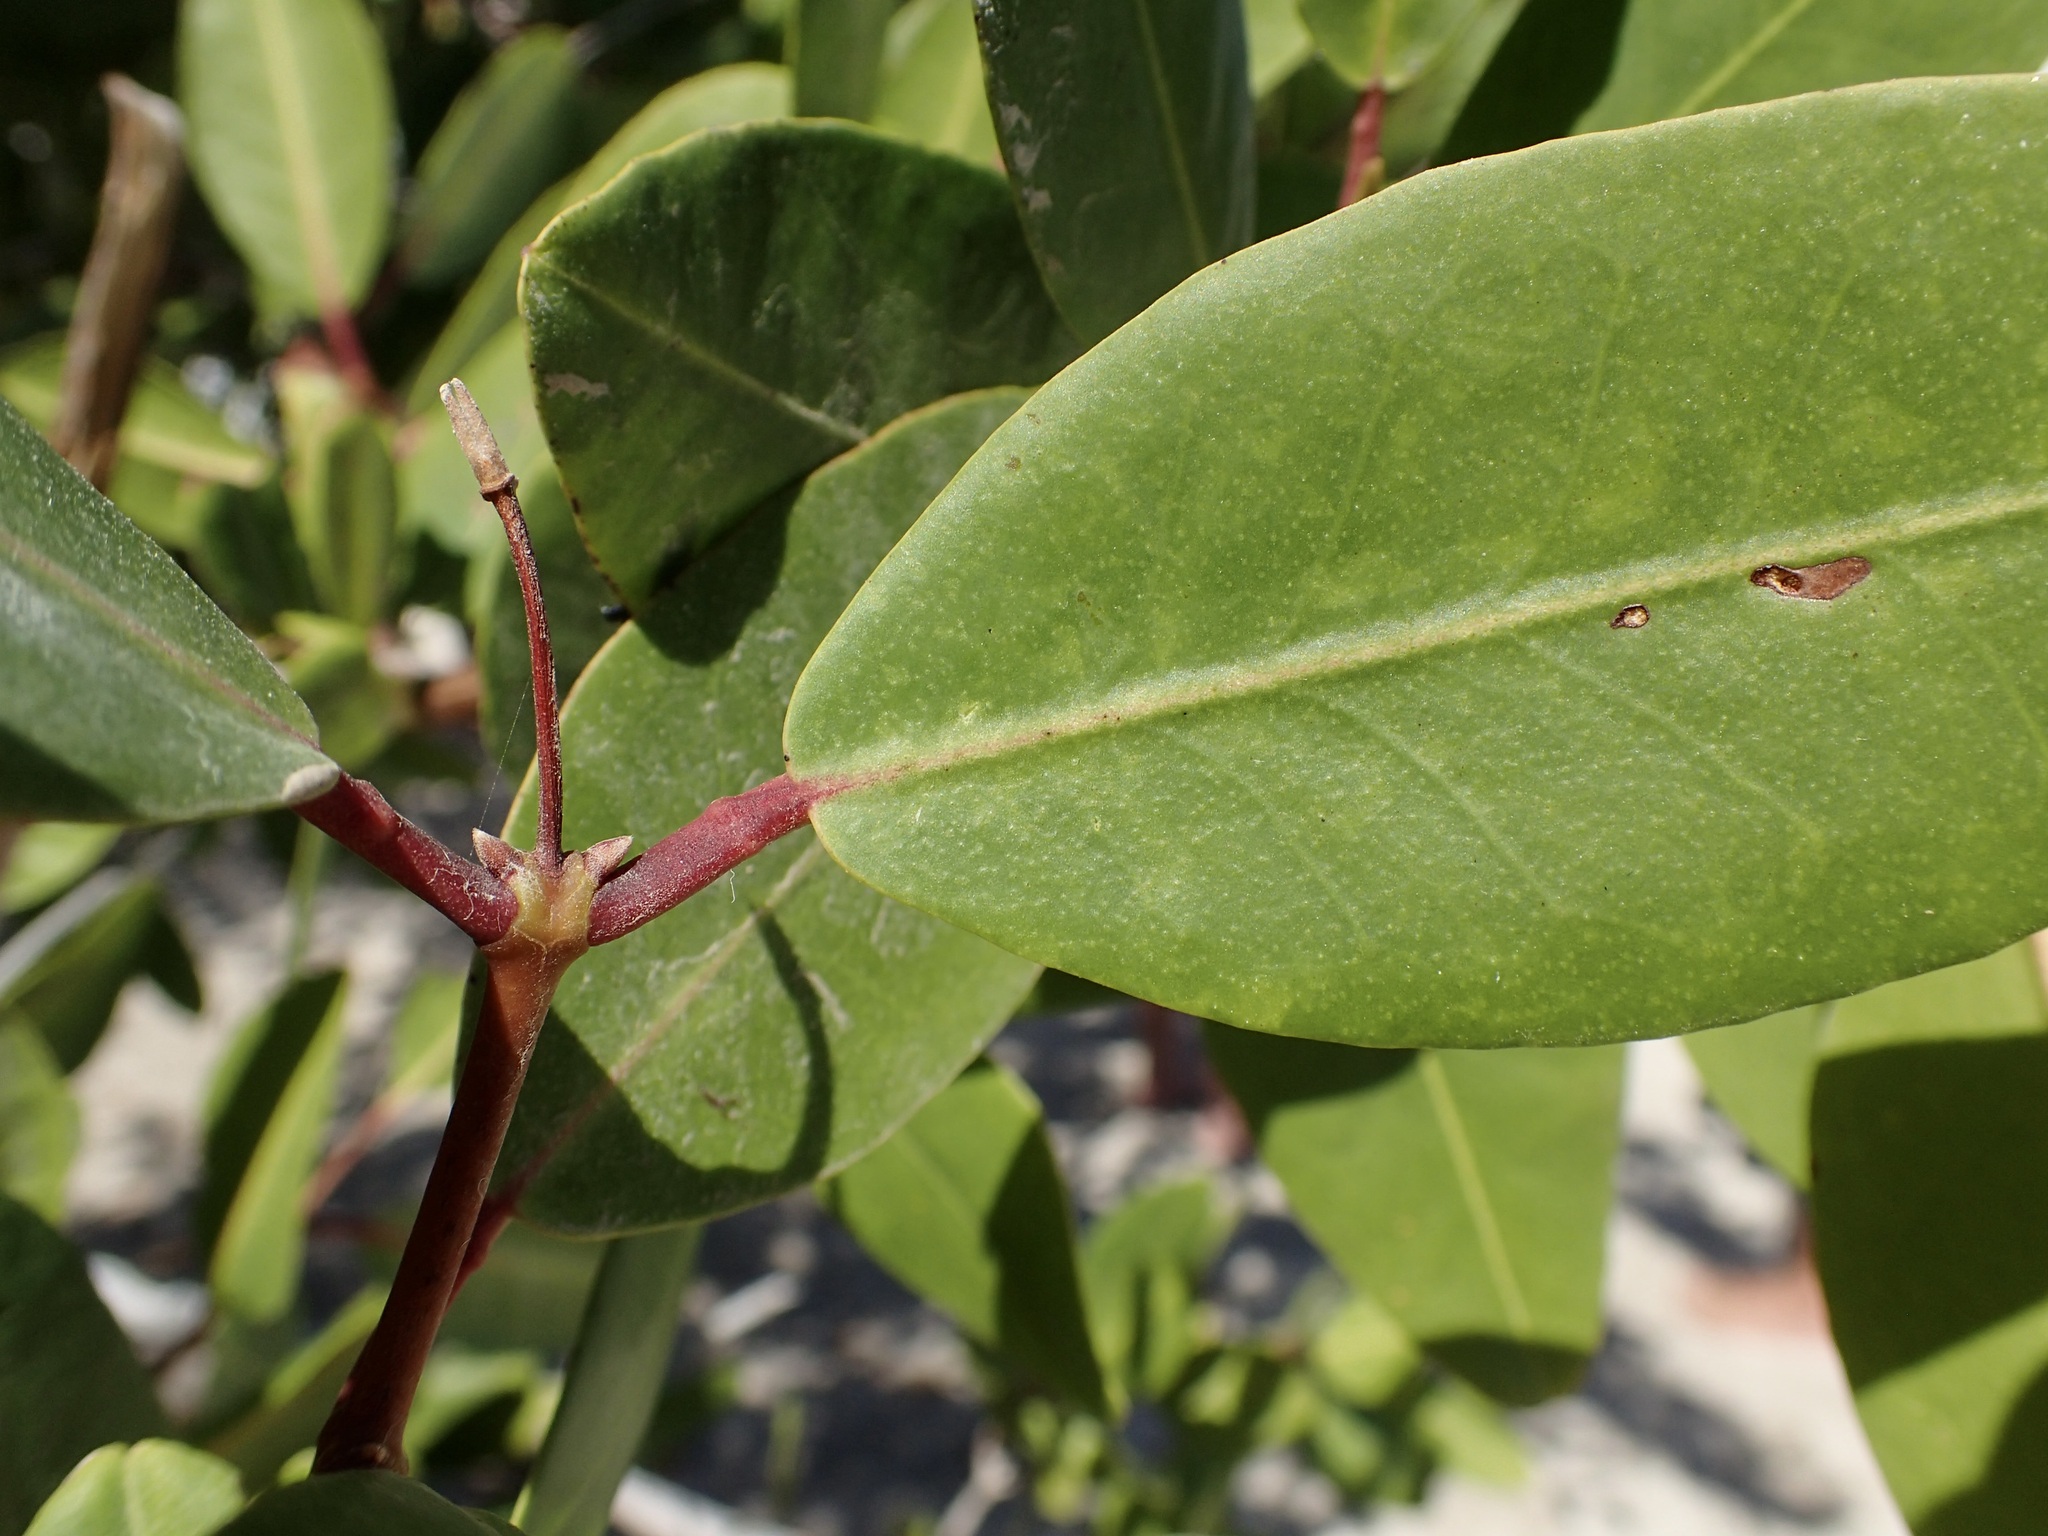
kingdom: Plantae
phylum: Tracheophyta
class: Magnoliopsida
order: Myrtales
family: Combretaceae
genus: Laguncularia
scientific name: Laguncularia racemosa
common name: White mangrove
